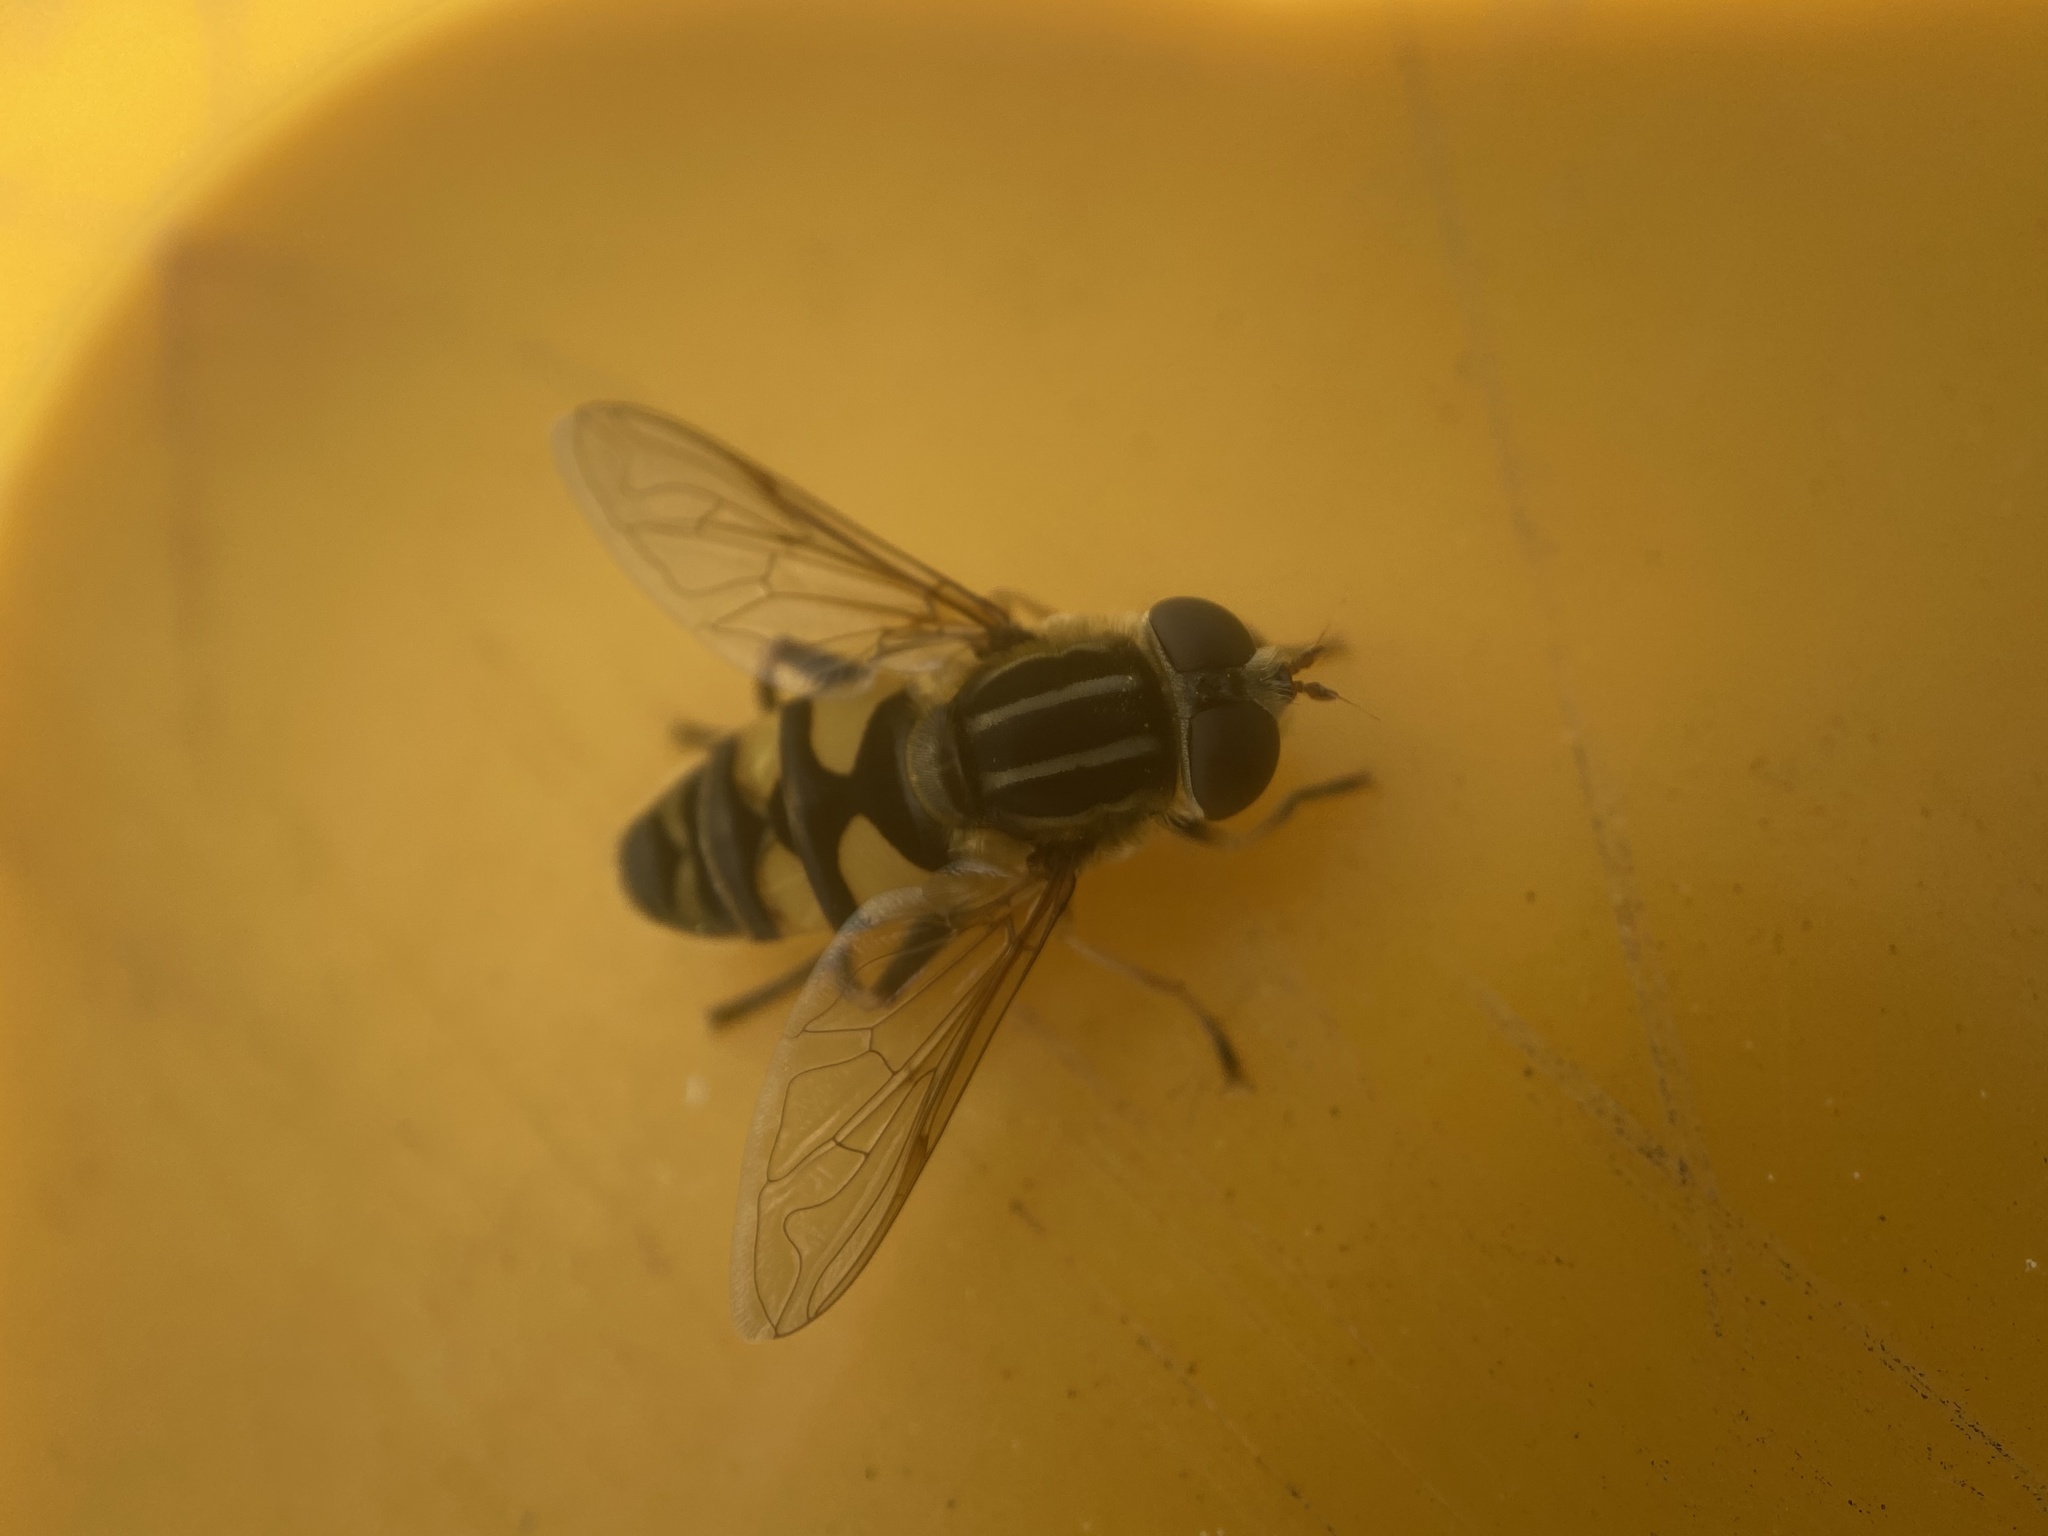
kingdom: Animalia
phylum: Arthropoda
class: Insecta
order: Diptera
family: Syrphidae
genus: Helophilus
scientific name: Helophilus fasciatus
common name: Narrow-headed marsh fly
